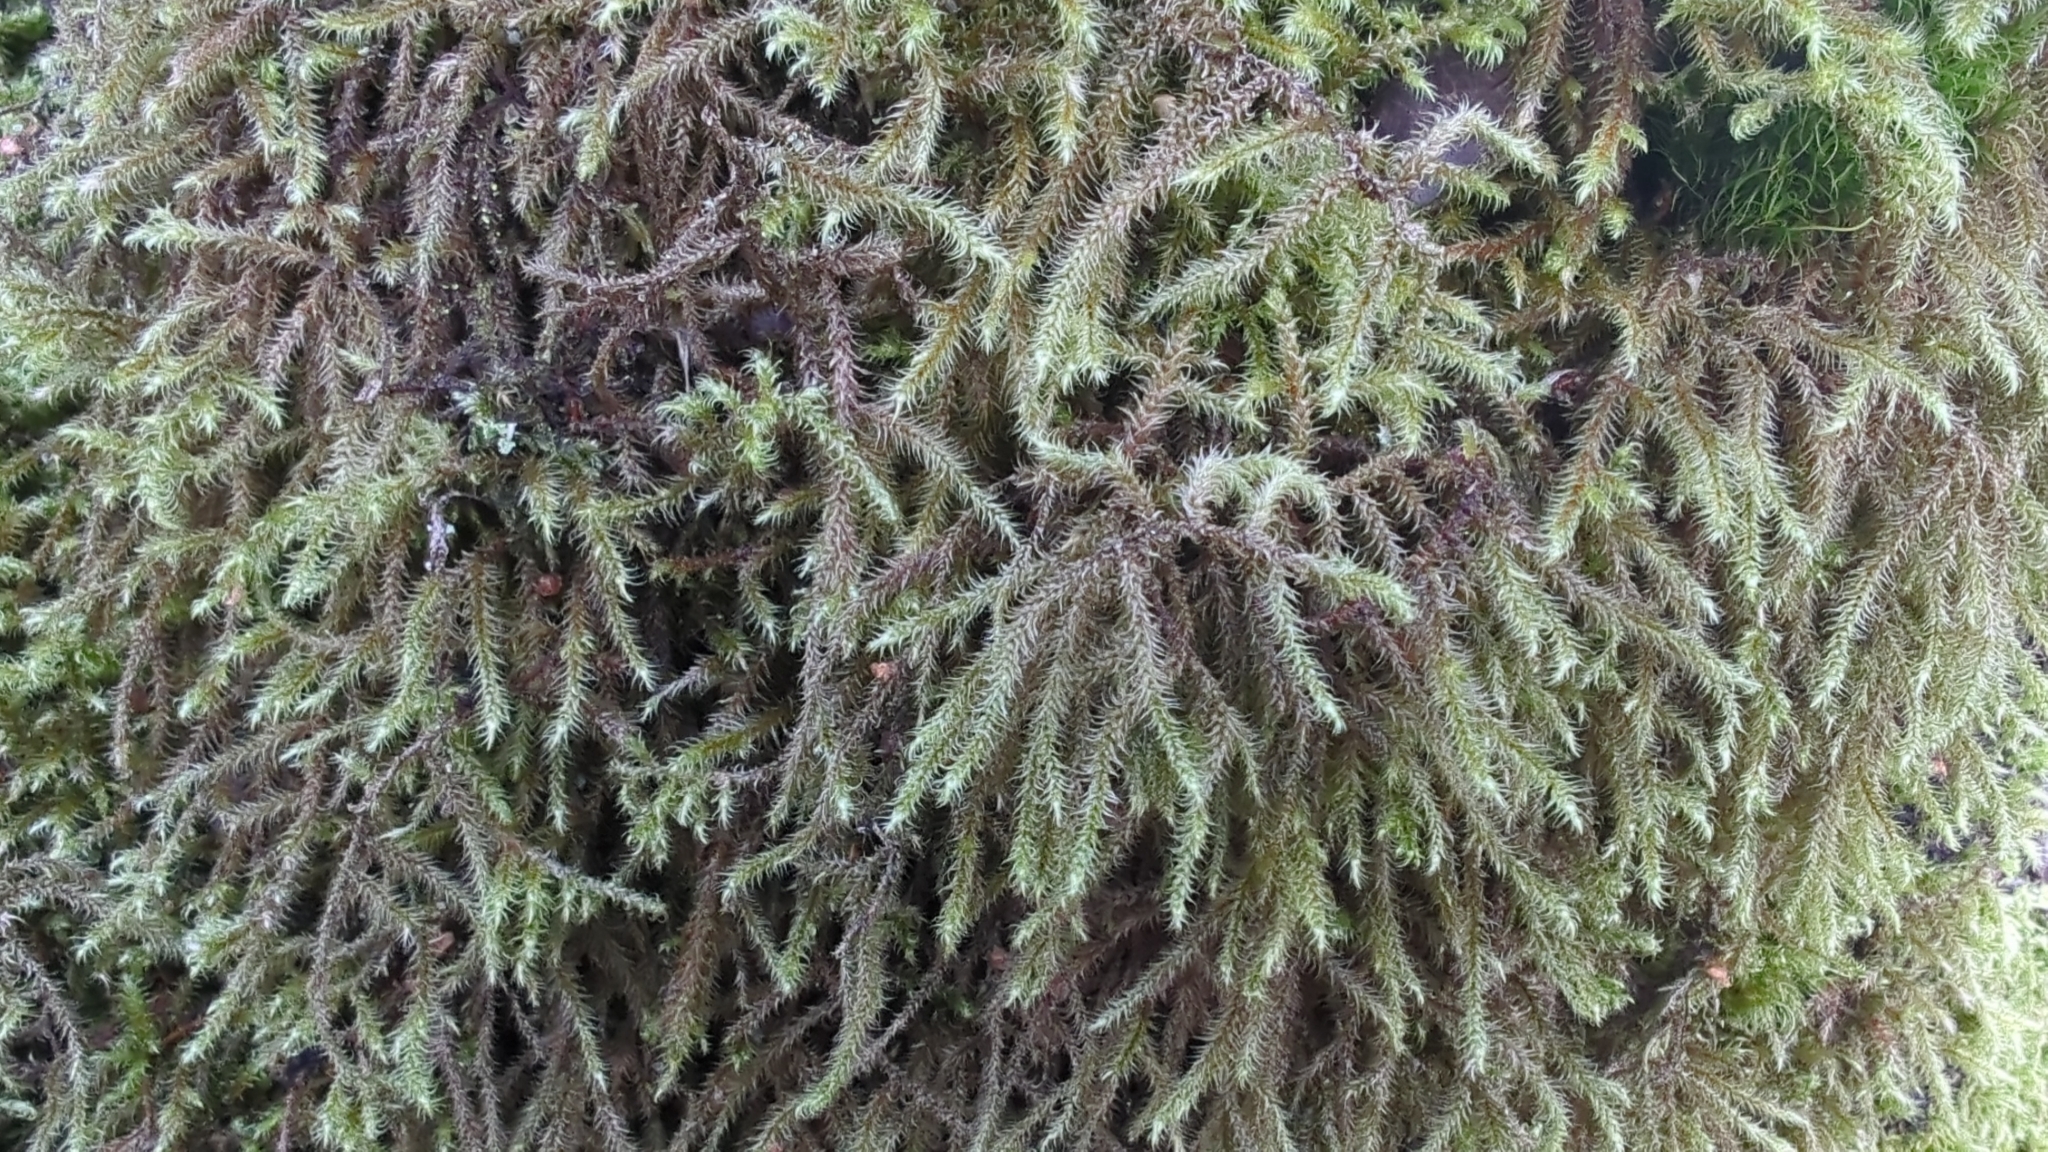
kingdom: Plantae
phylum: Bryophyta
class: Bryopsida
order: Hypnales
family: Hylocomiaceae
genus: Rhytidiadelphus
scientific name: Rhytidiadelphus loreus
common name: Lanky moss
